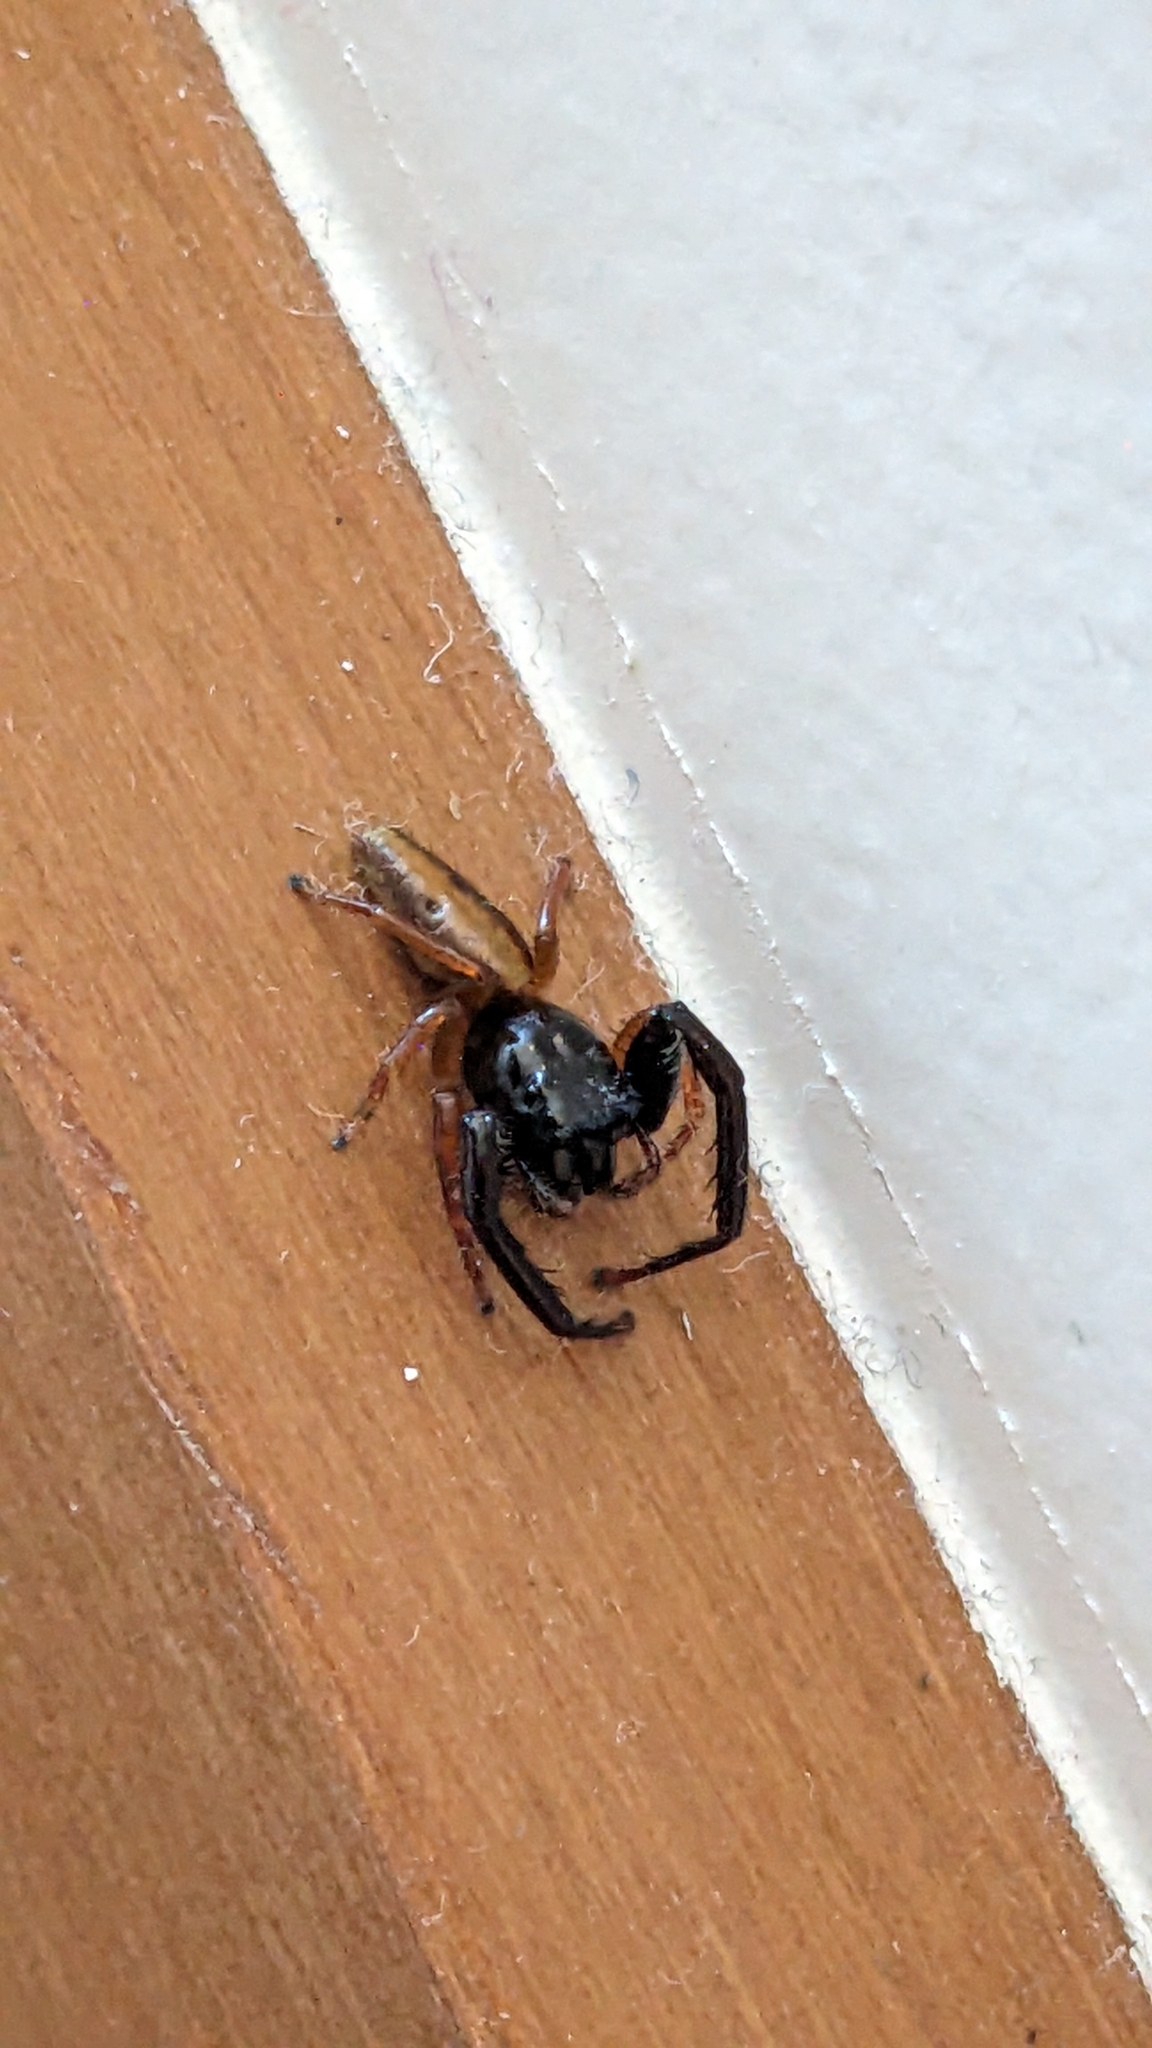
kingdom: Animalia
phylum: Arthropoda
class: Arachnida
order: Araneae
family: Salticidae
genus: Trite
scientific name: Trite planiceps
